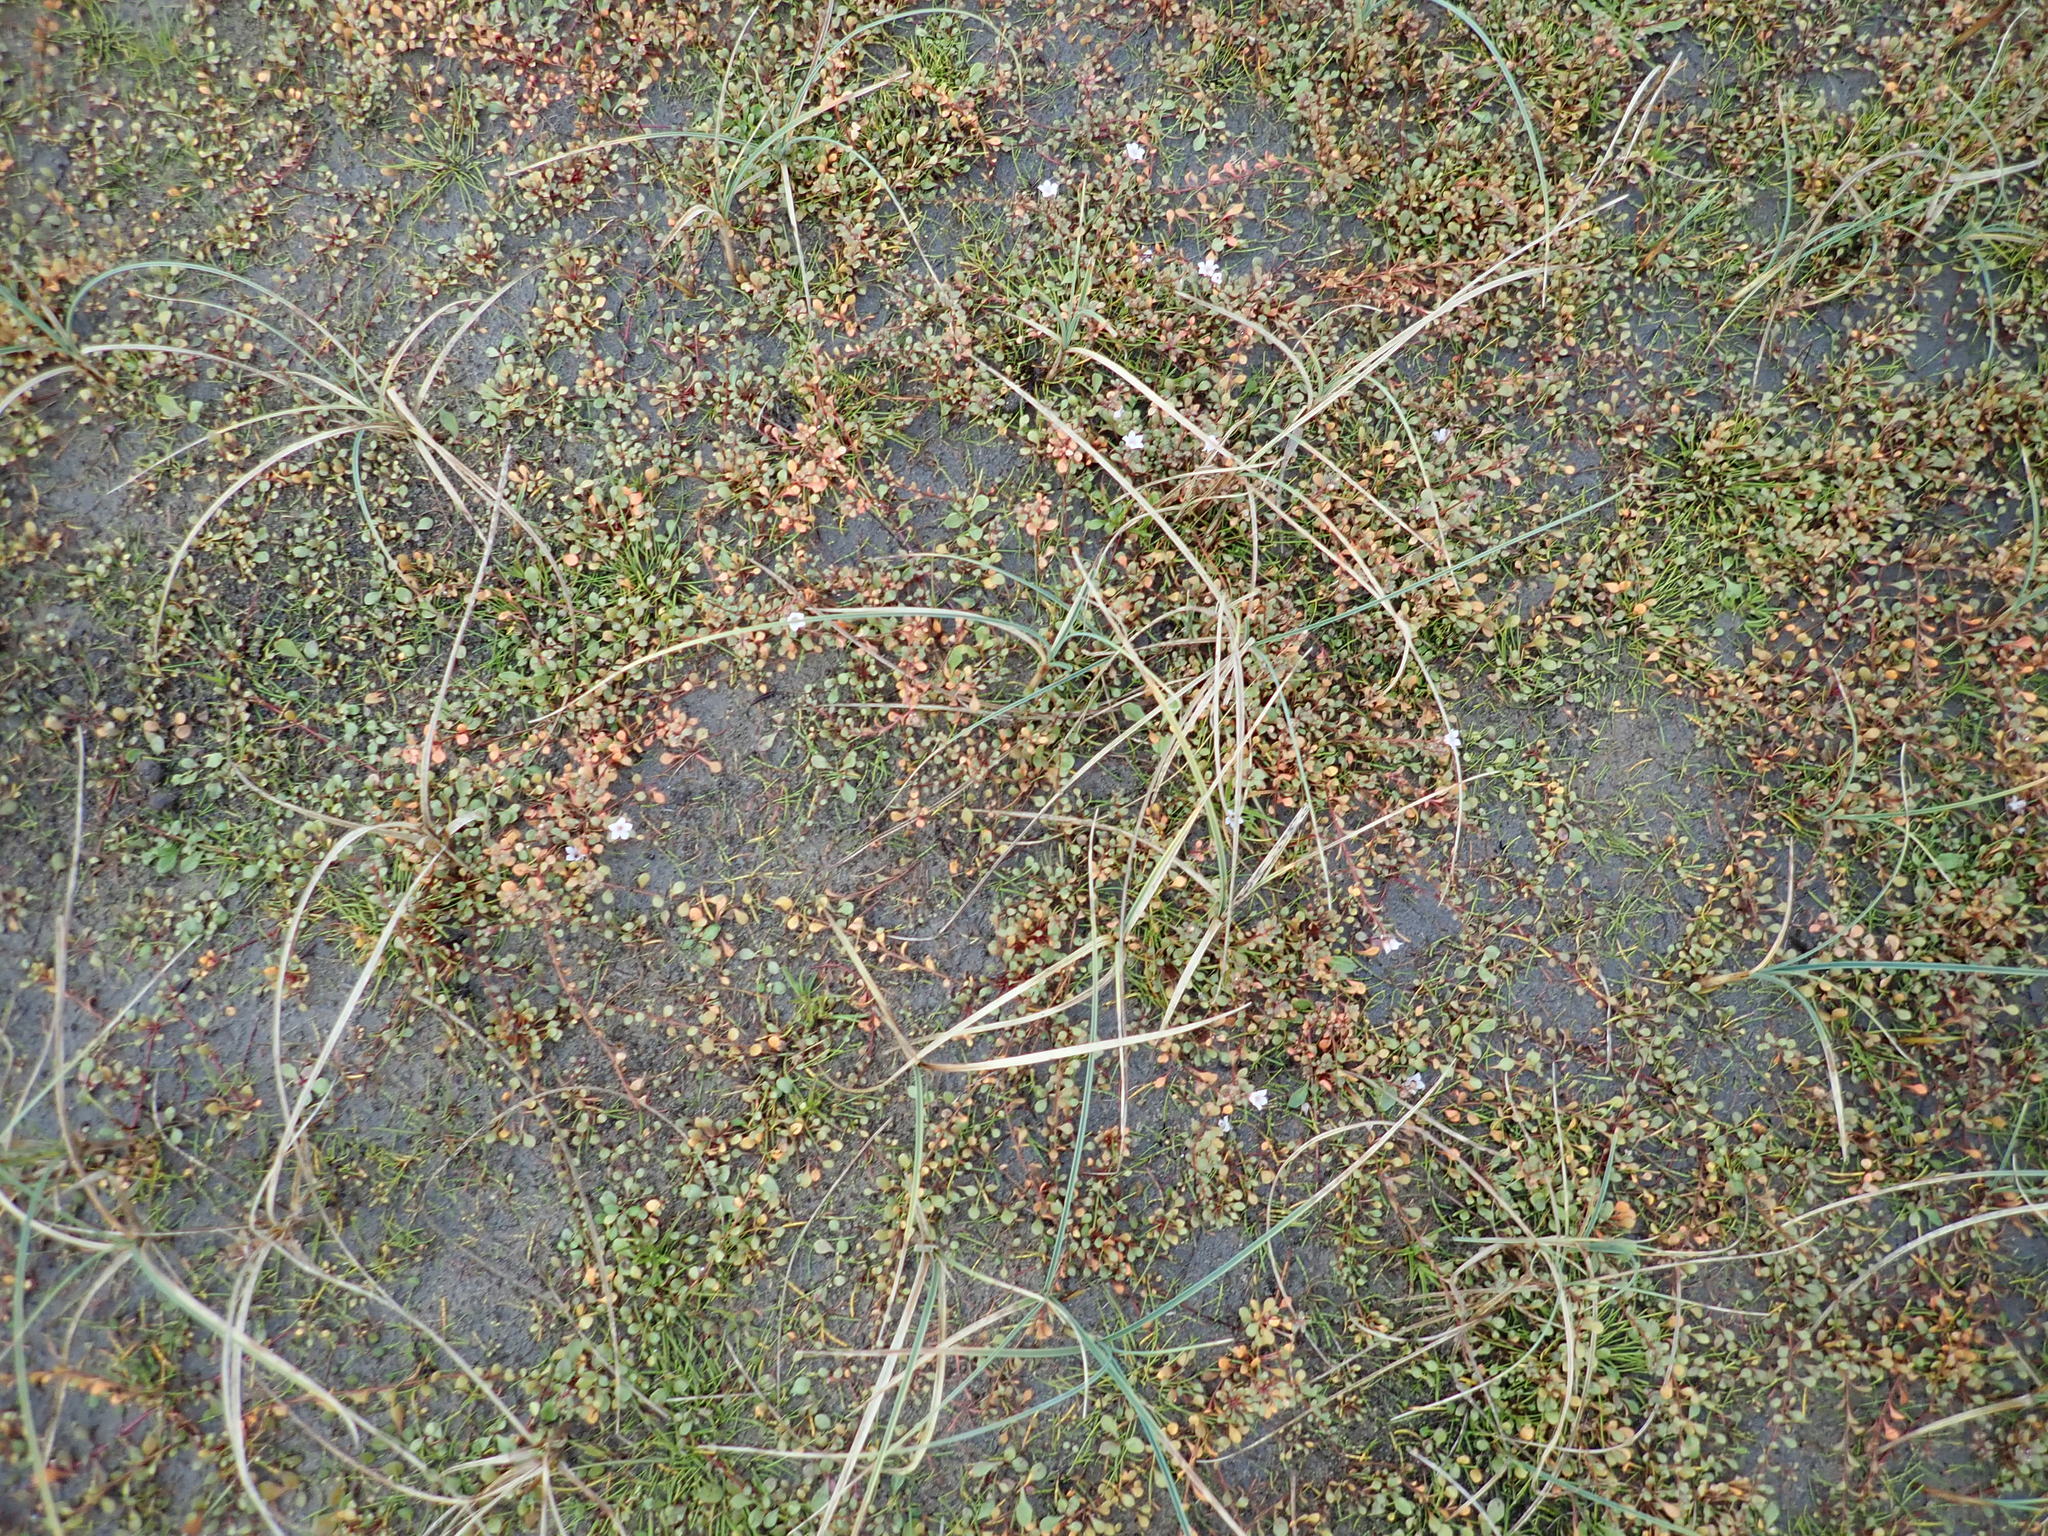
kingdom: Plantae
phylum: Tracheophyta
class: Magnoliopsida
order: Ericales
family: Primulaceae
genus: Samolus
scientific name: Samolus repens
